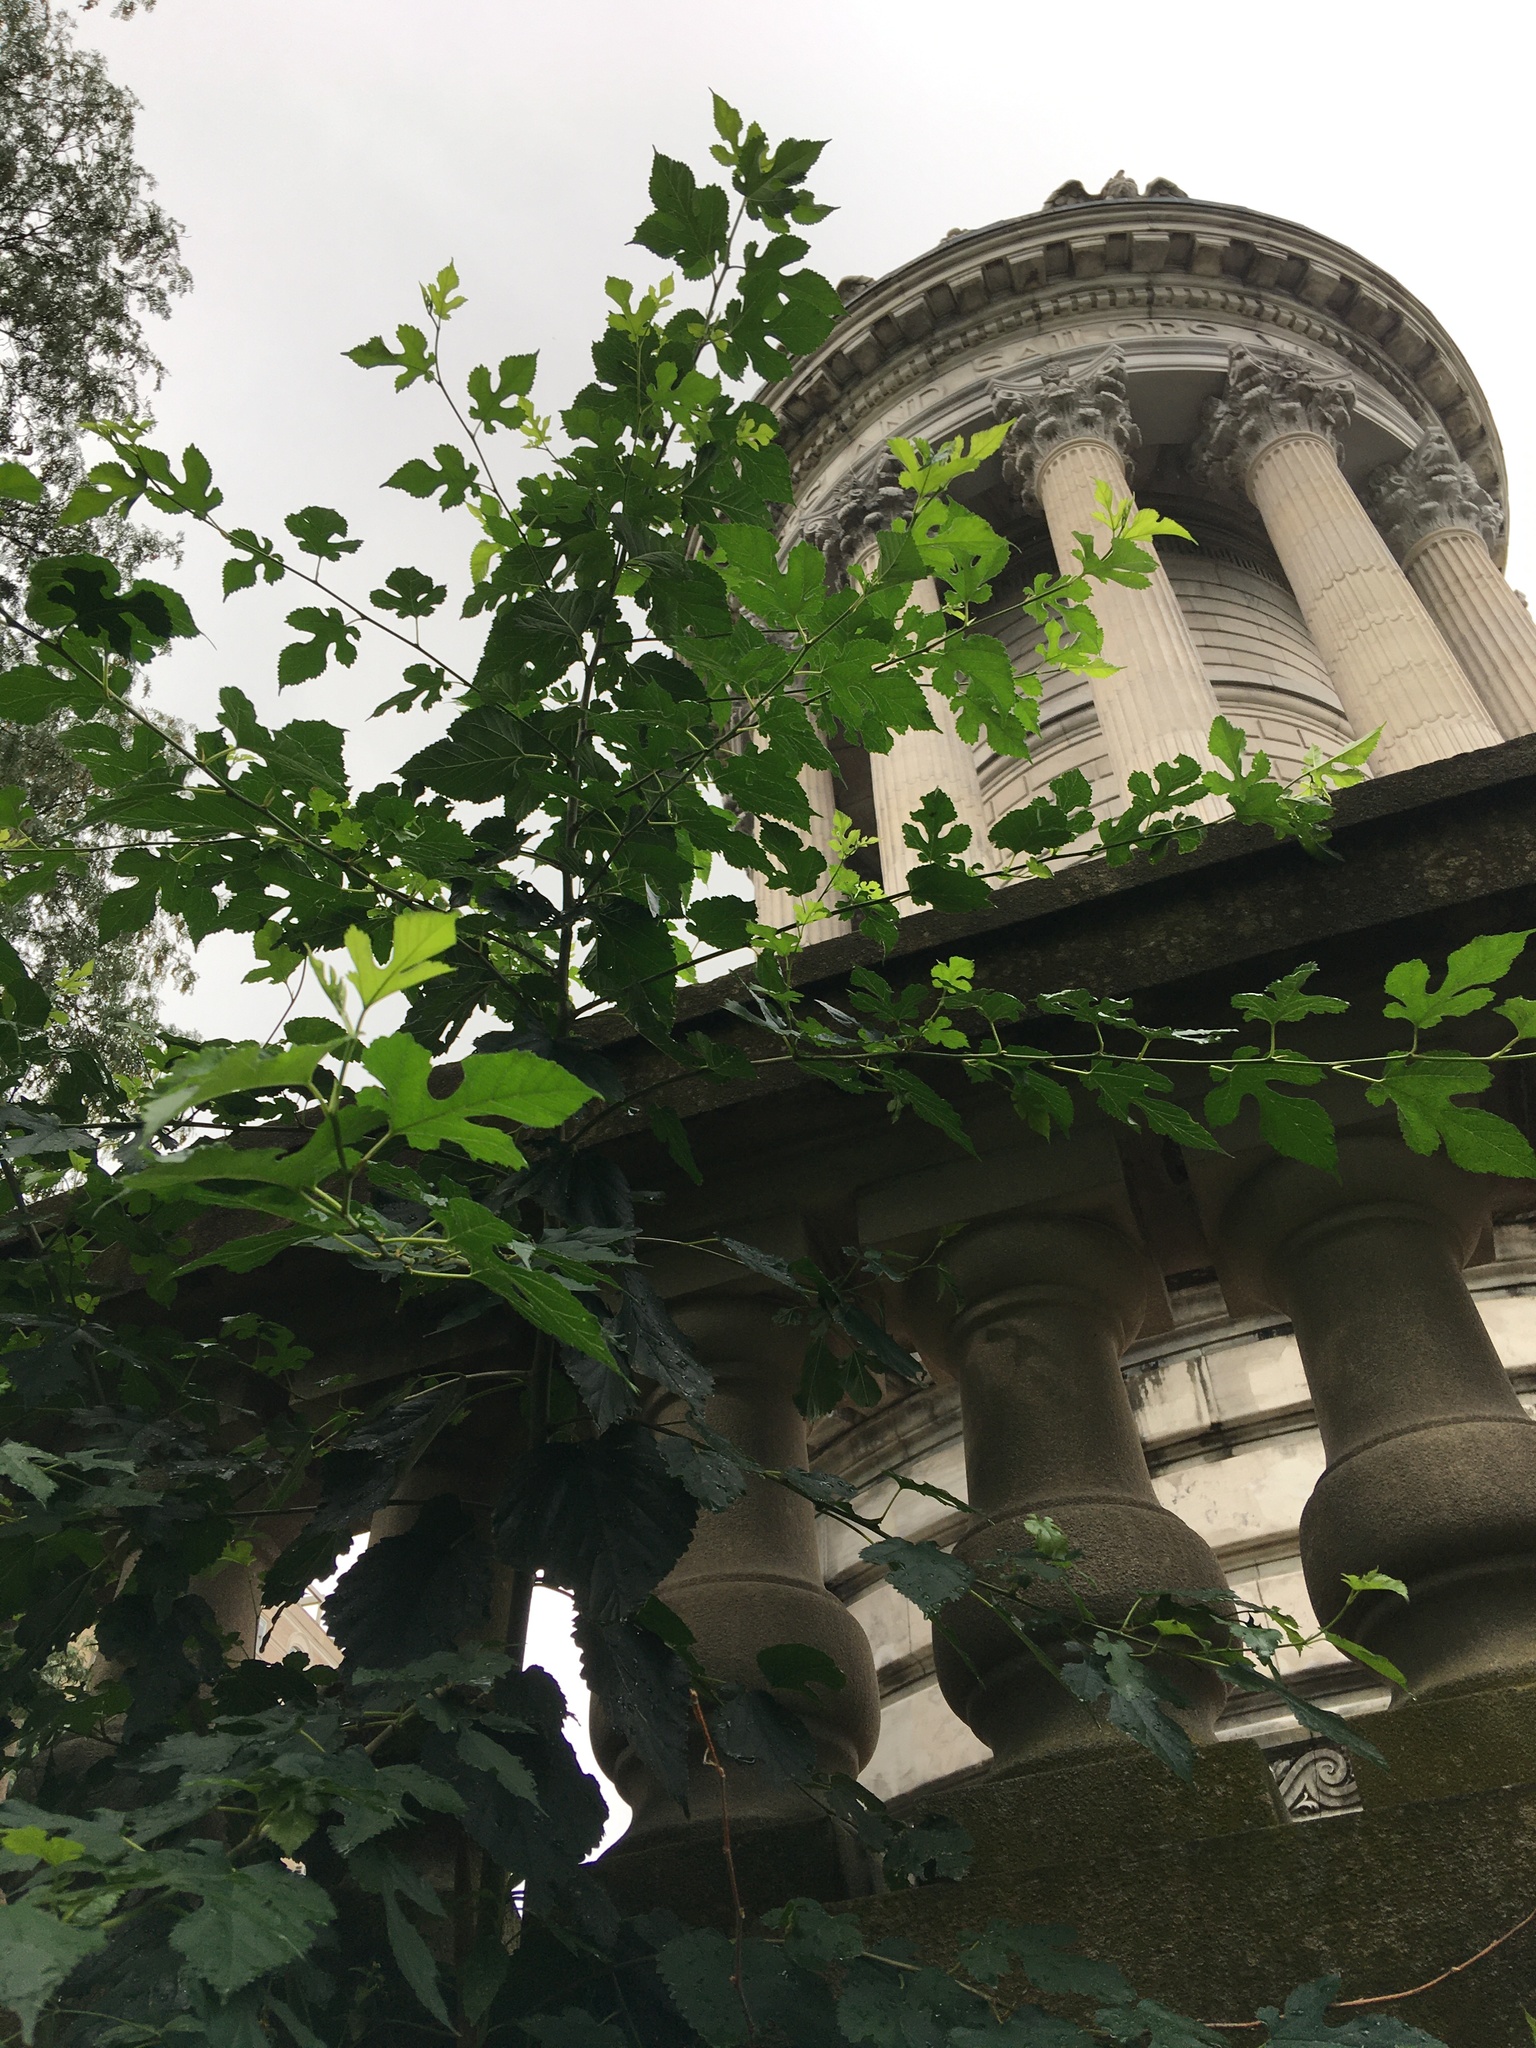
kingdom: Plantae
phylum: Tracheophyta
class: Magnoliopsida
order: Rosales
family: Moraceae
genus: Morus
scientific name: Morus alba
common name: White mulberry
